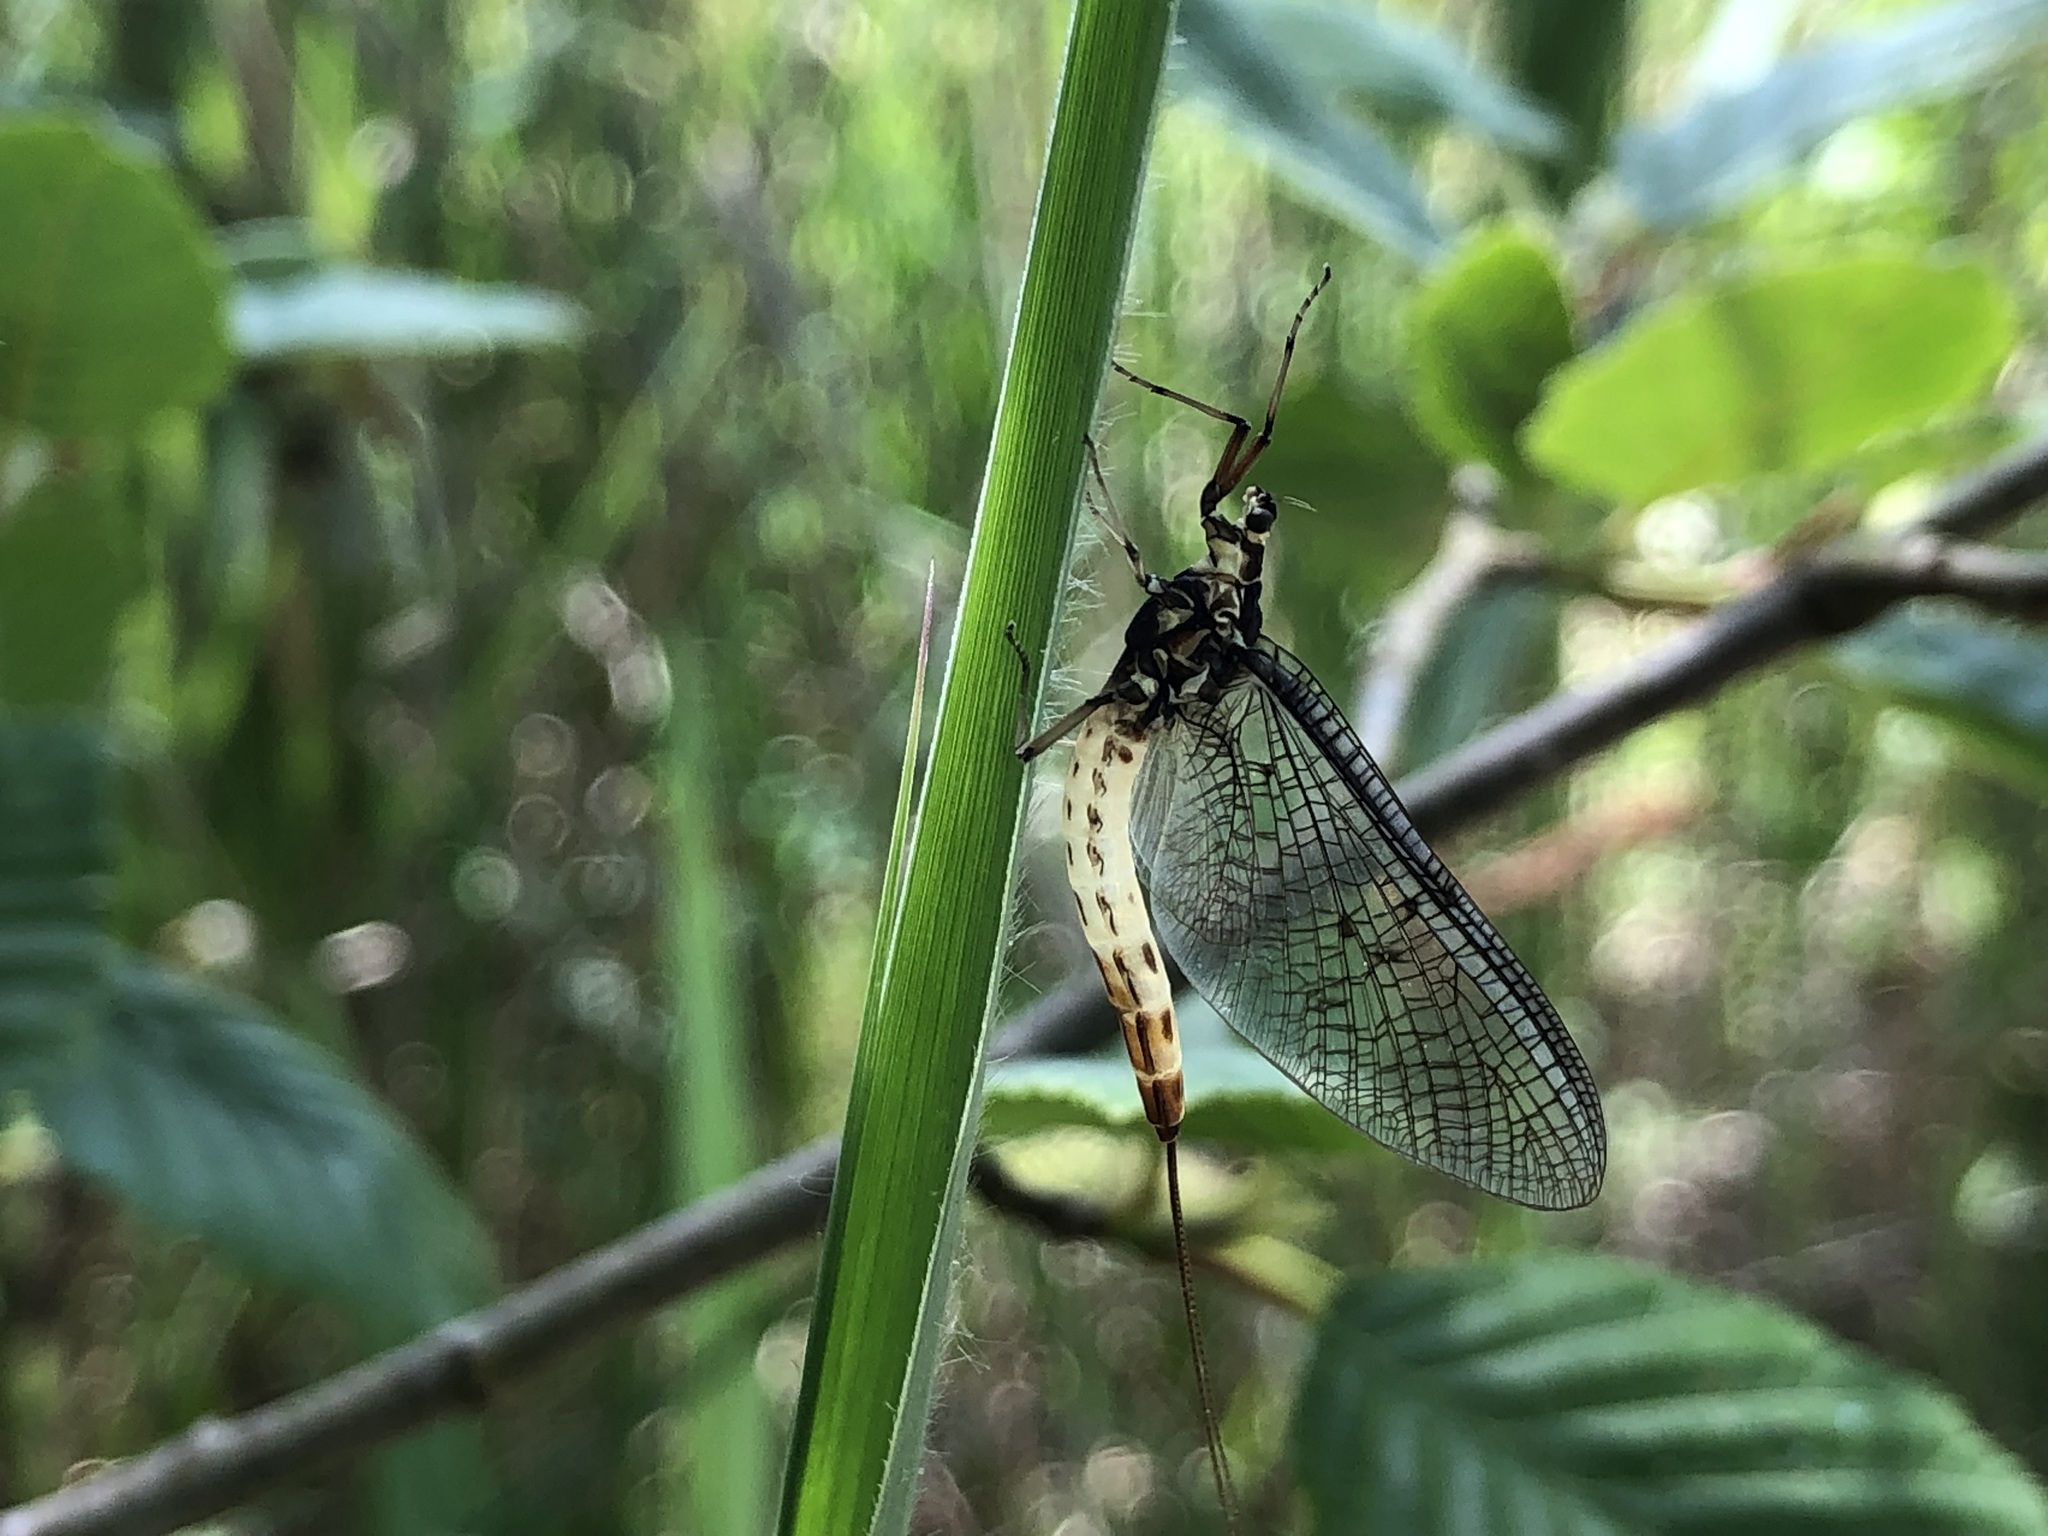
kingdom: Animalia
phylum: Arthropoda
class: Insecta
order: Ephemeroptera
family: Ephemeridae
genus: Ephemera
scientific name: Ephemera danica
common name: Green dun
